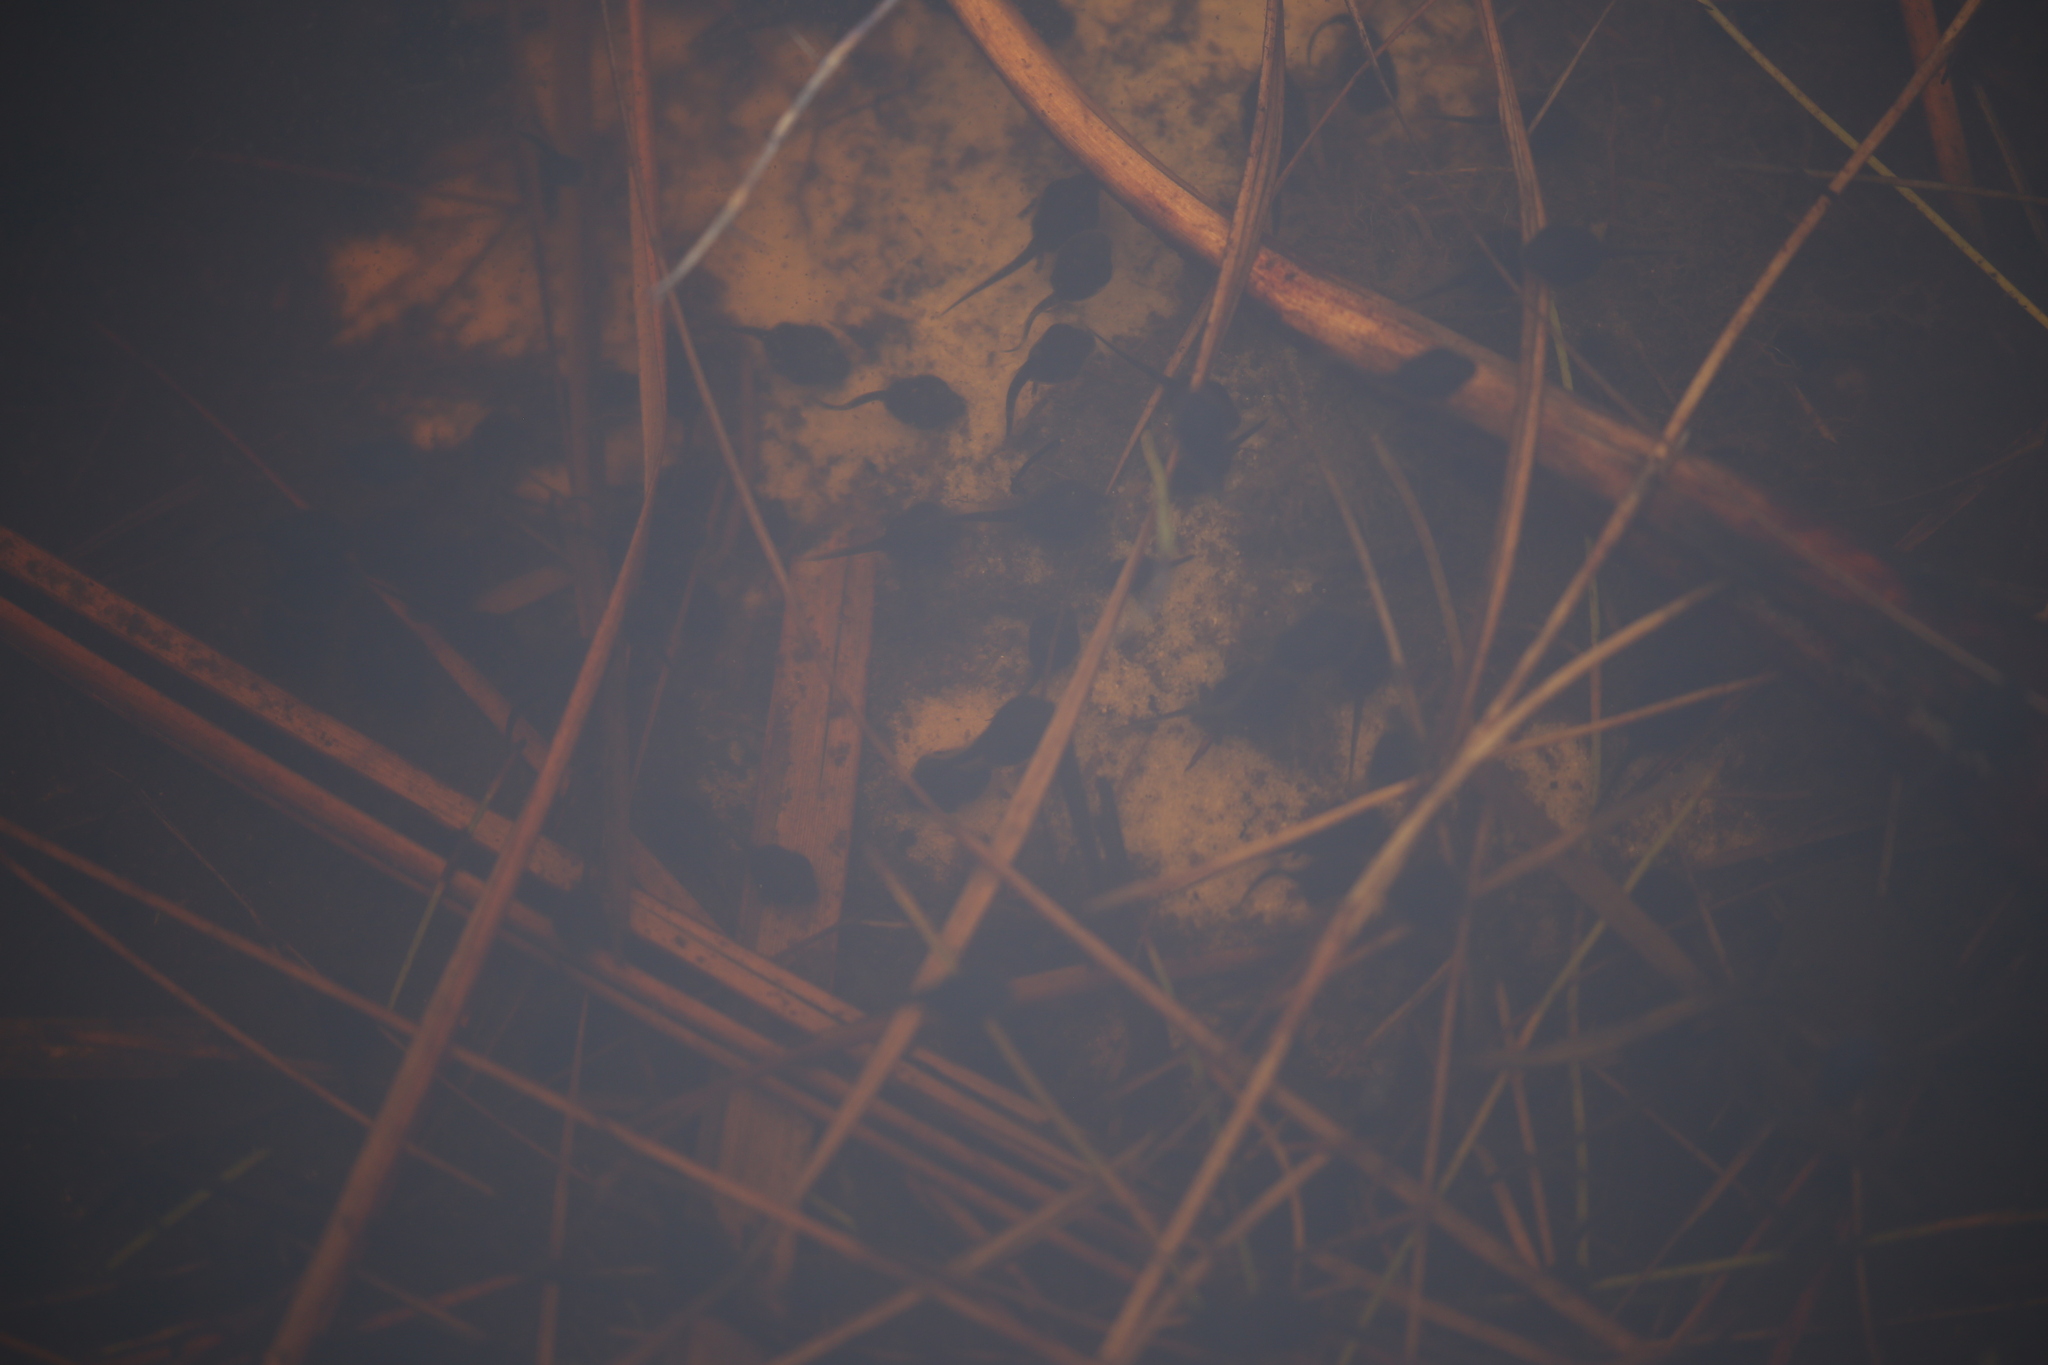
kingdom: Animalia
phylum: Chordata
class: Amphibia
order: Anura
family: Bufonidae
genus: Rhinella
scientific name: Rhinella marina
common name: Cane toad
